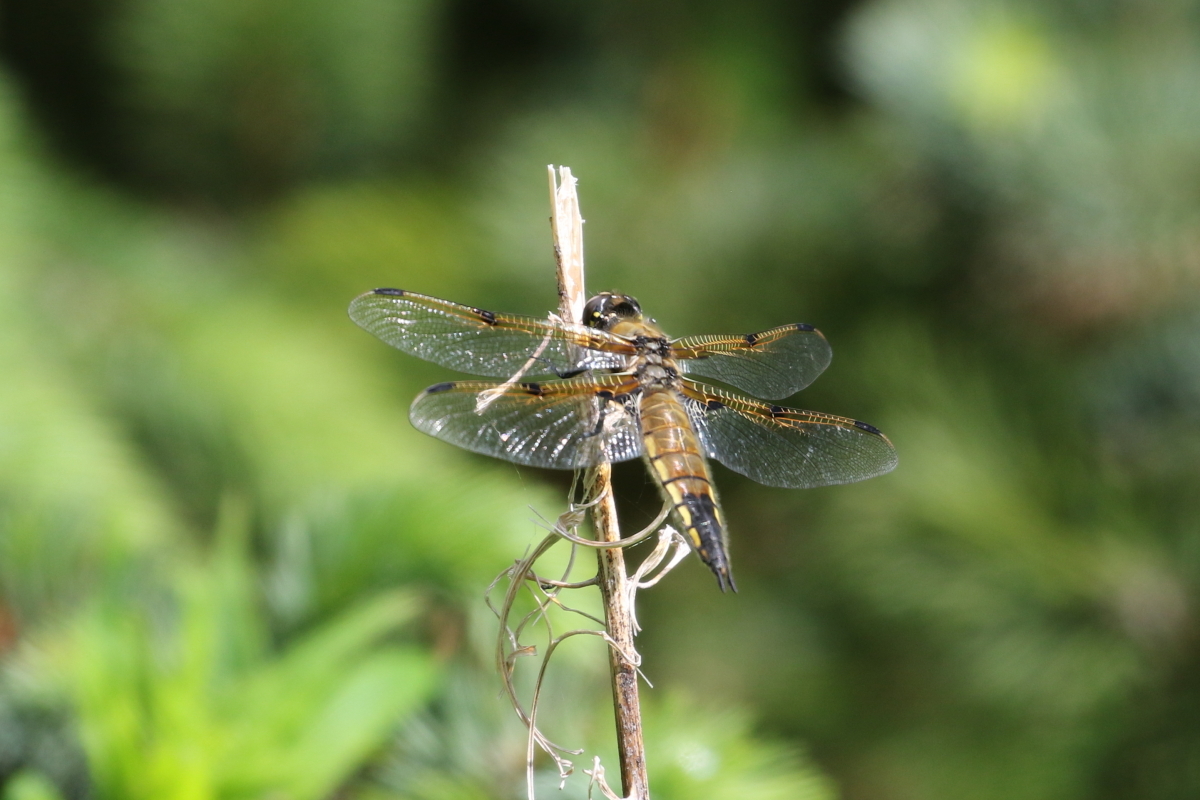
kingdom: Animalia
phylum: Arthropoda
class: Insecta
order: Odonata
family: Libellulidae
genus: Libellula
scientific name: Libellula quadrimaculata
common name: Four-spotted chaser
